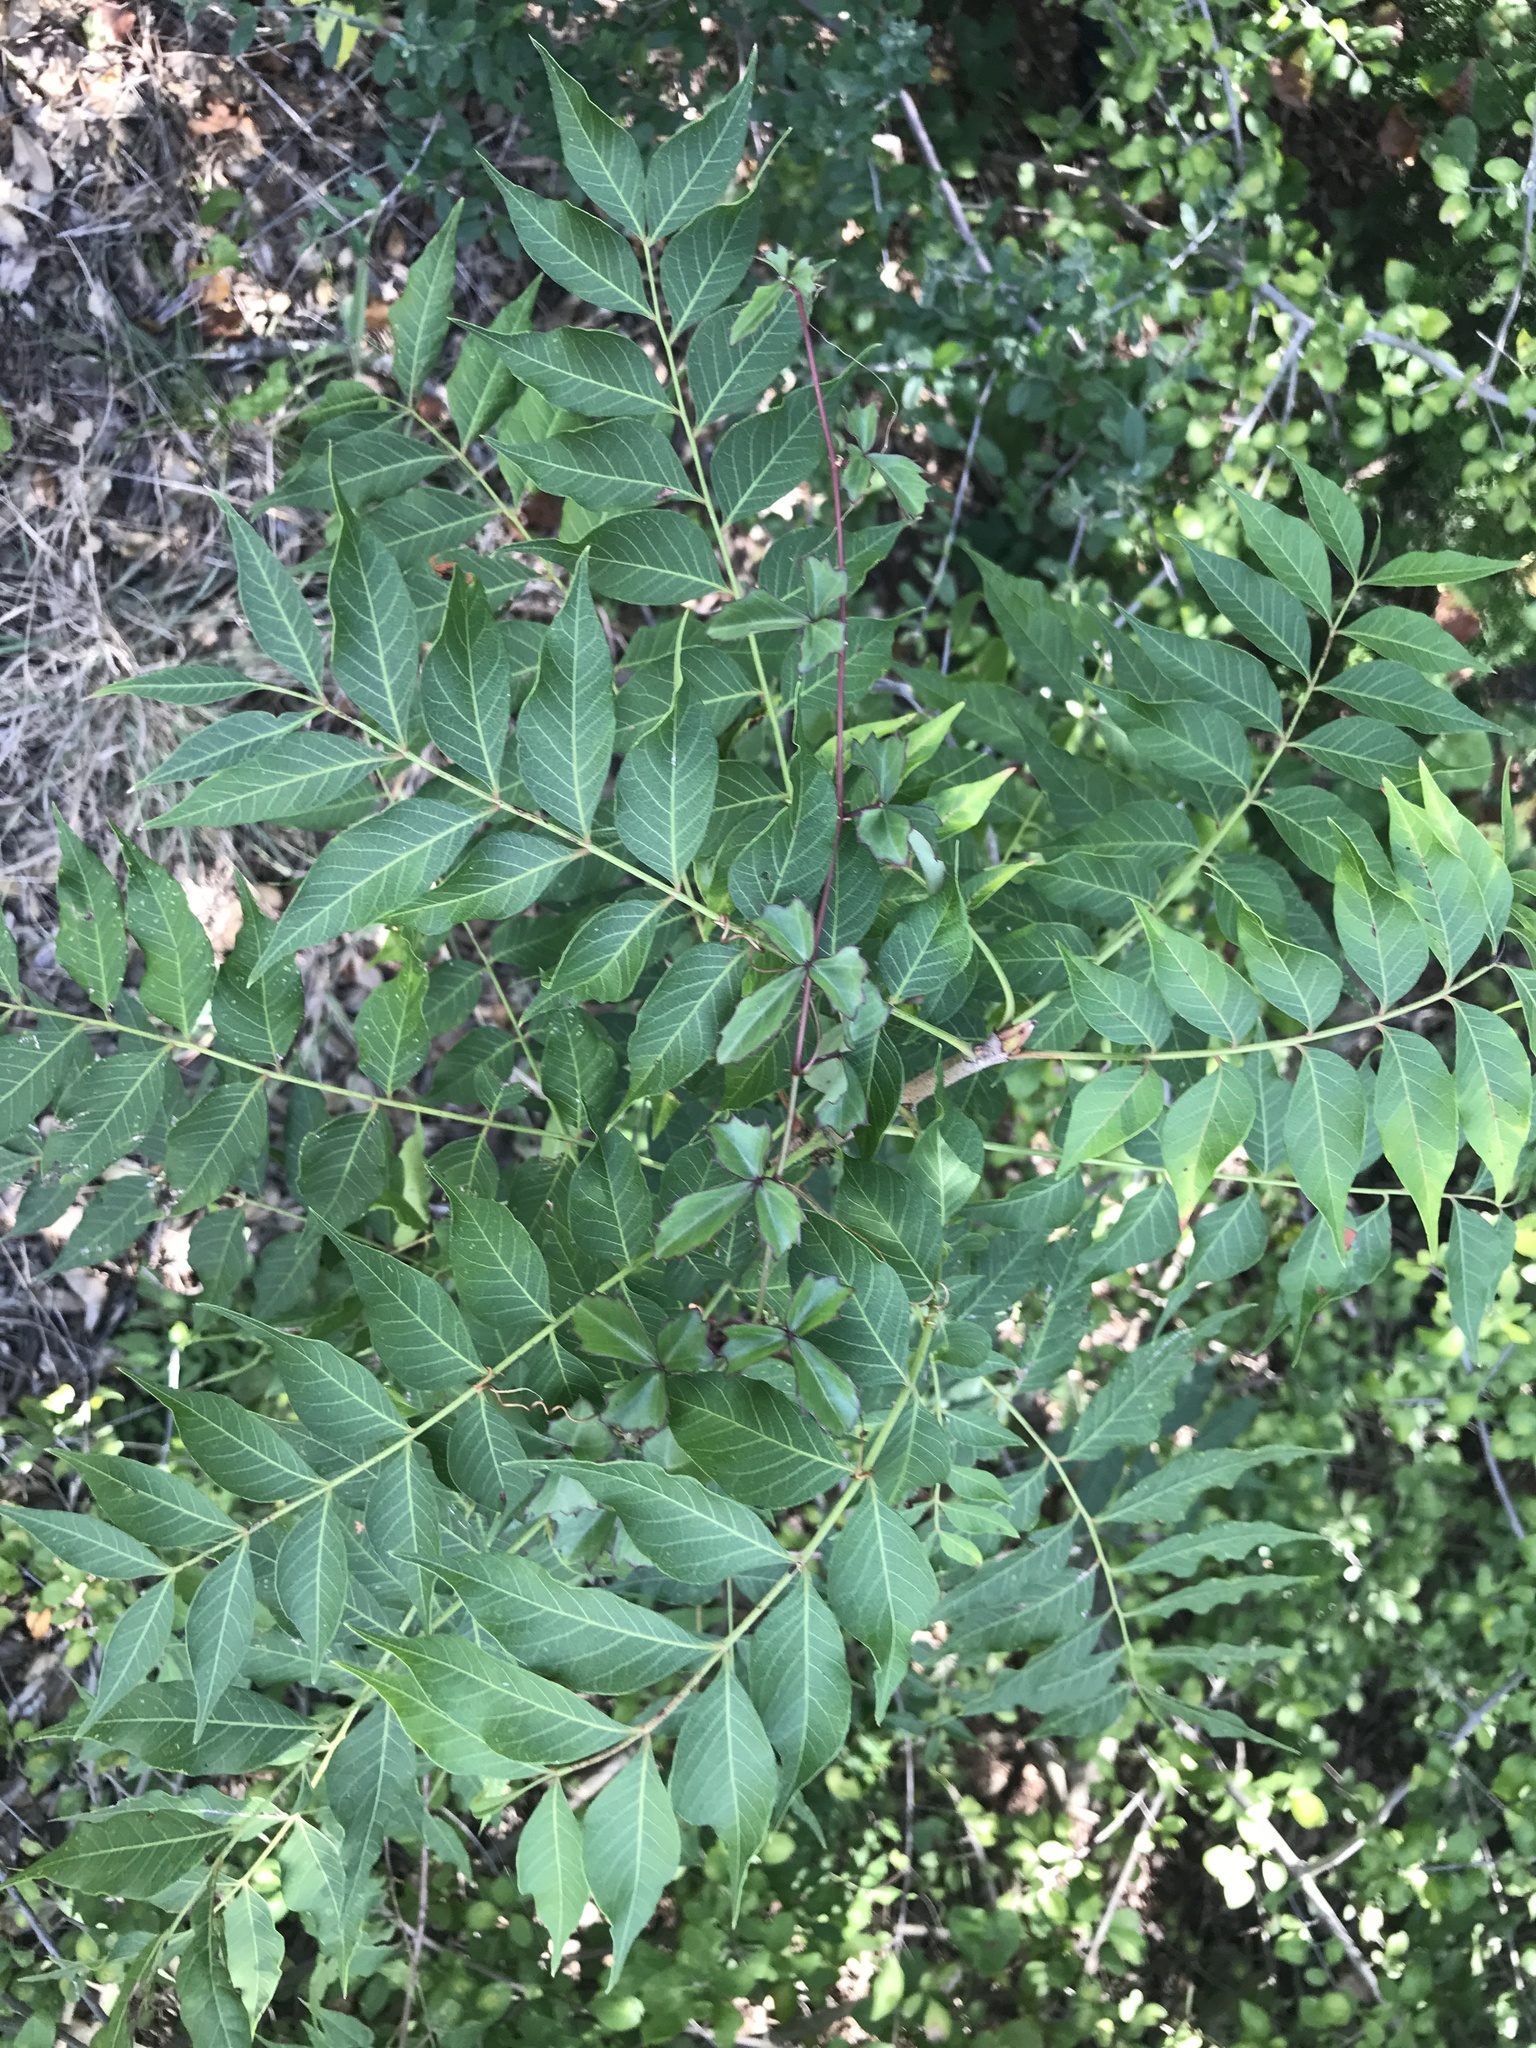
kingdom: Plantae
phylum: Tracheophyta
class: Magnoliopsida
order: Sapindales
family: Anacardiaceae
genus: Rhus
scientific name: Rhus lanceolata
